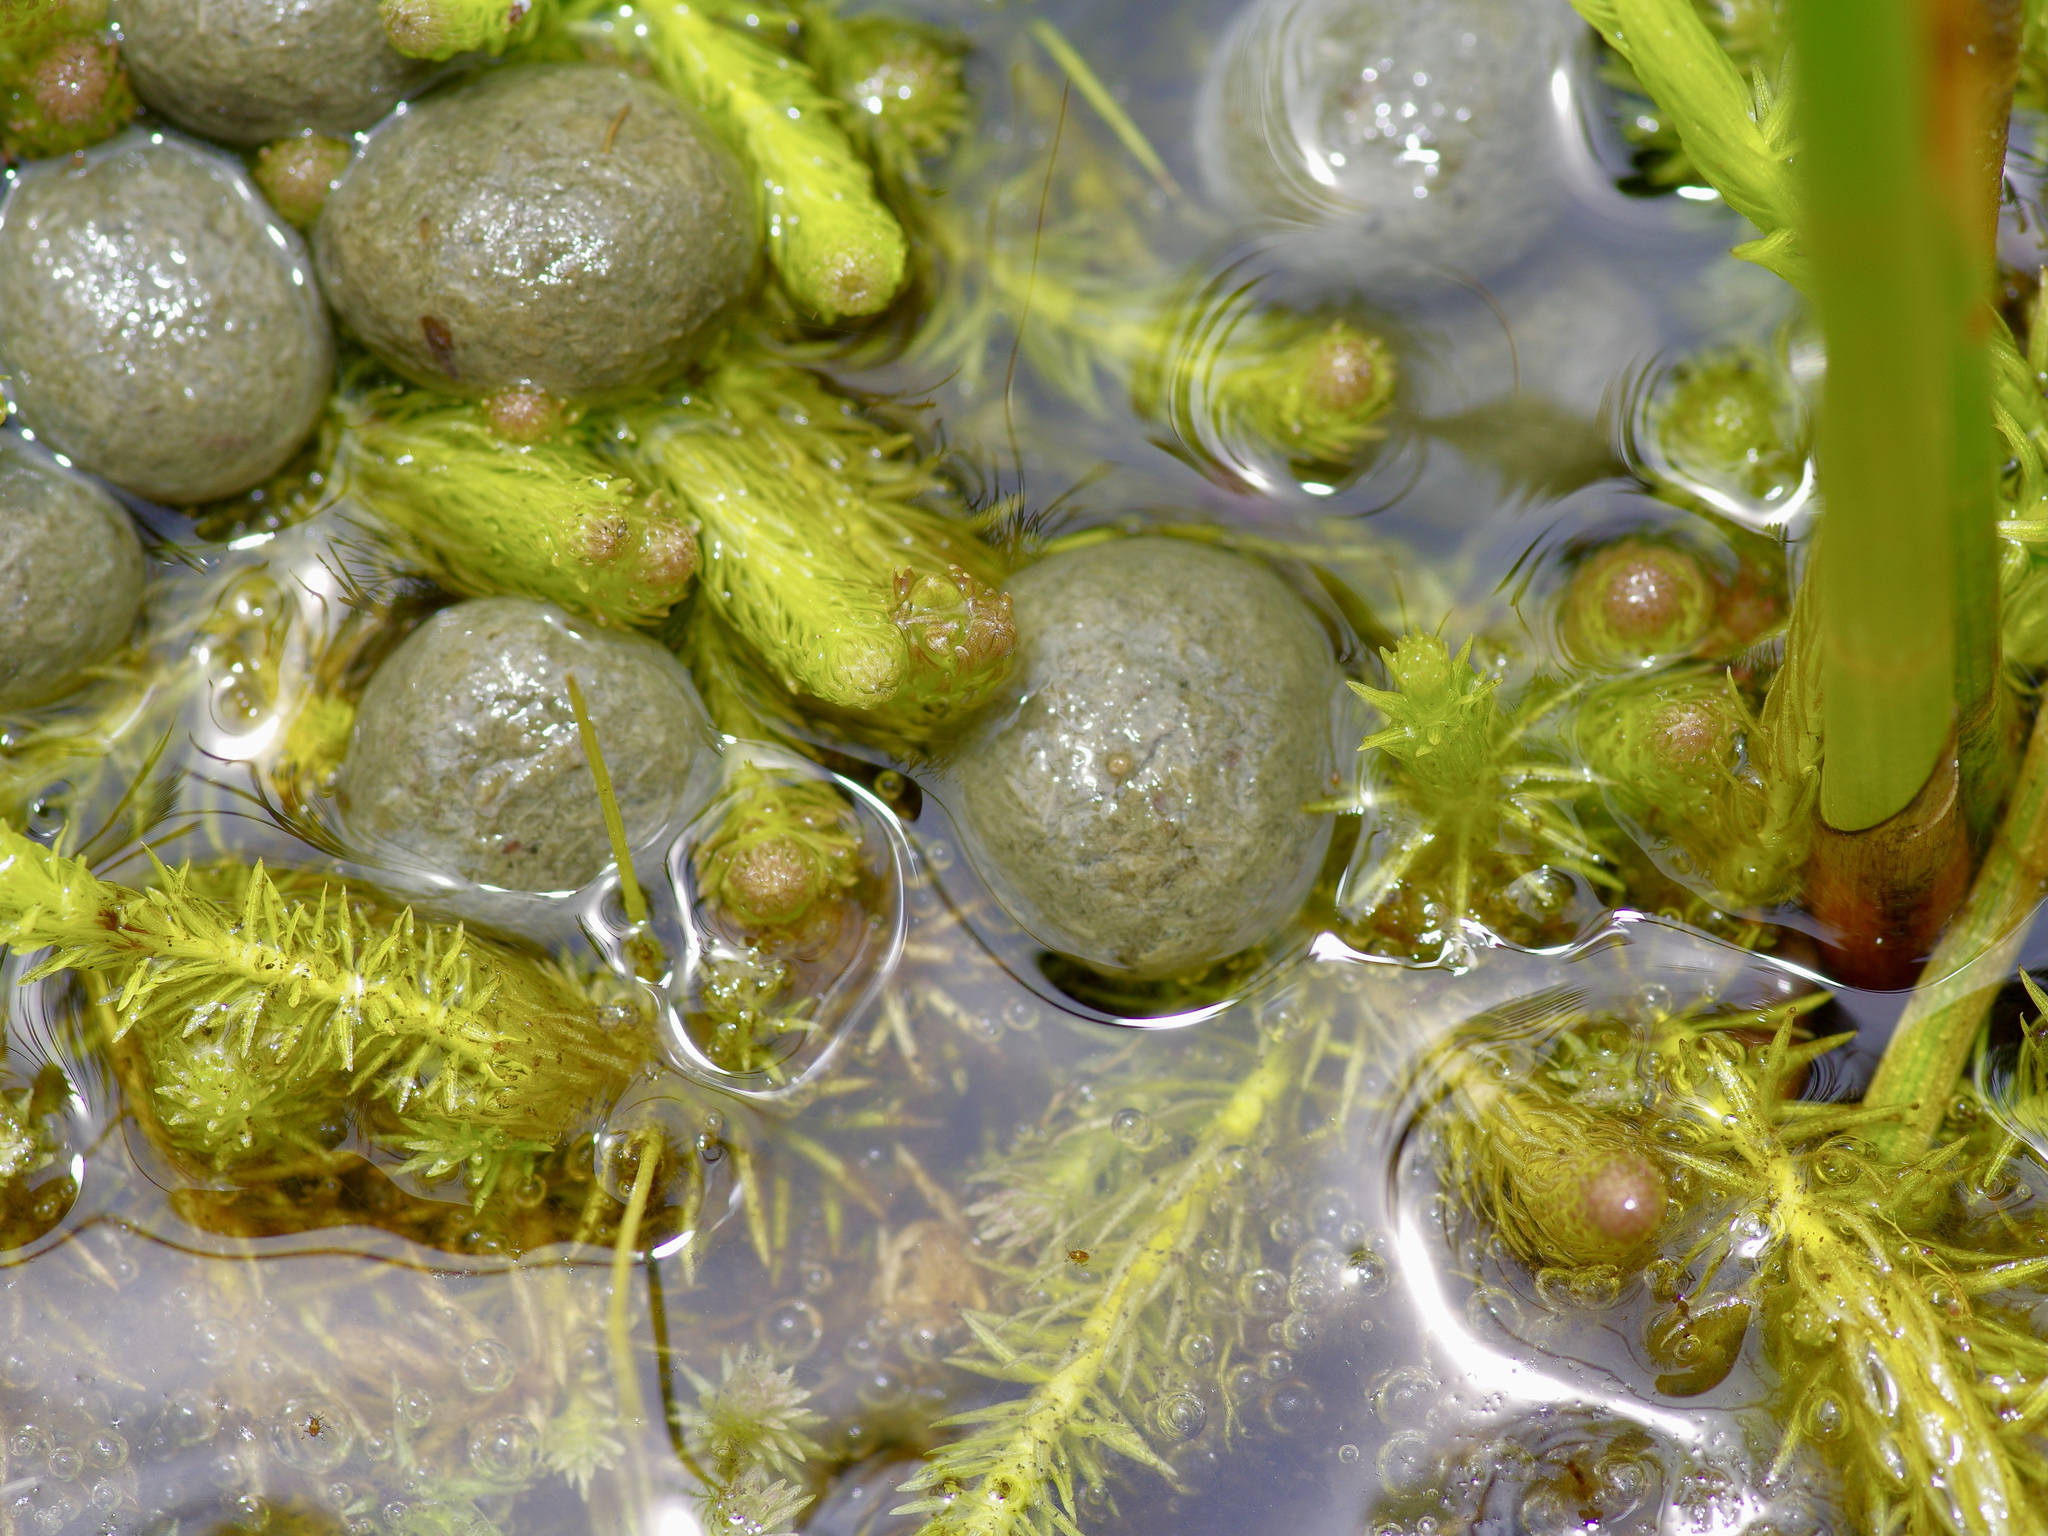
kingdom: Animalia
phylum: Chordata
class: Mammalia
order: Lagomorpha
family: Leporidae
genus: Sylvilagus
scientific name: Sylvilagus aquaticus
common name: Swamp rabbit
